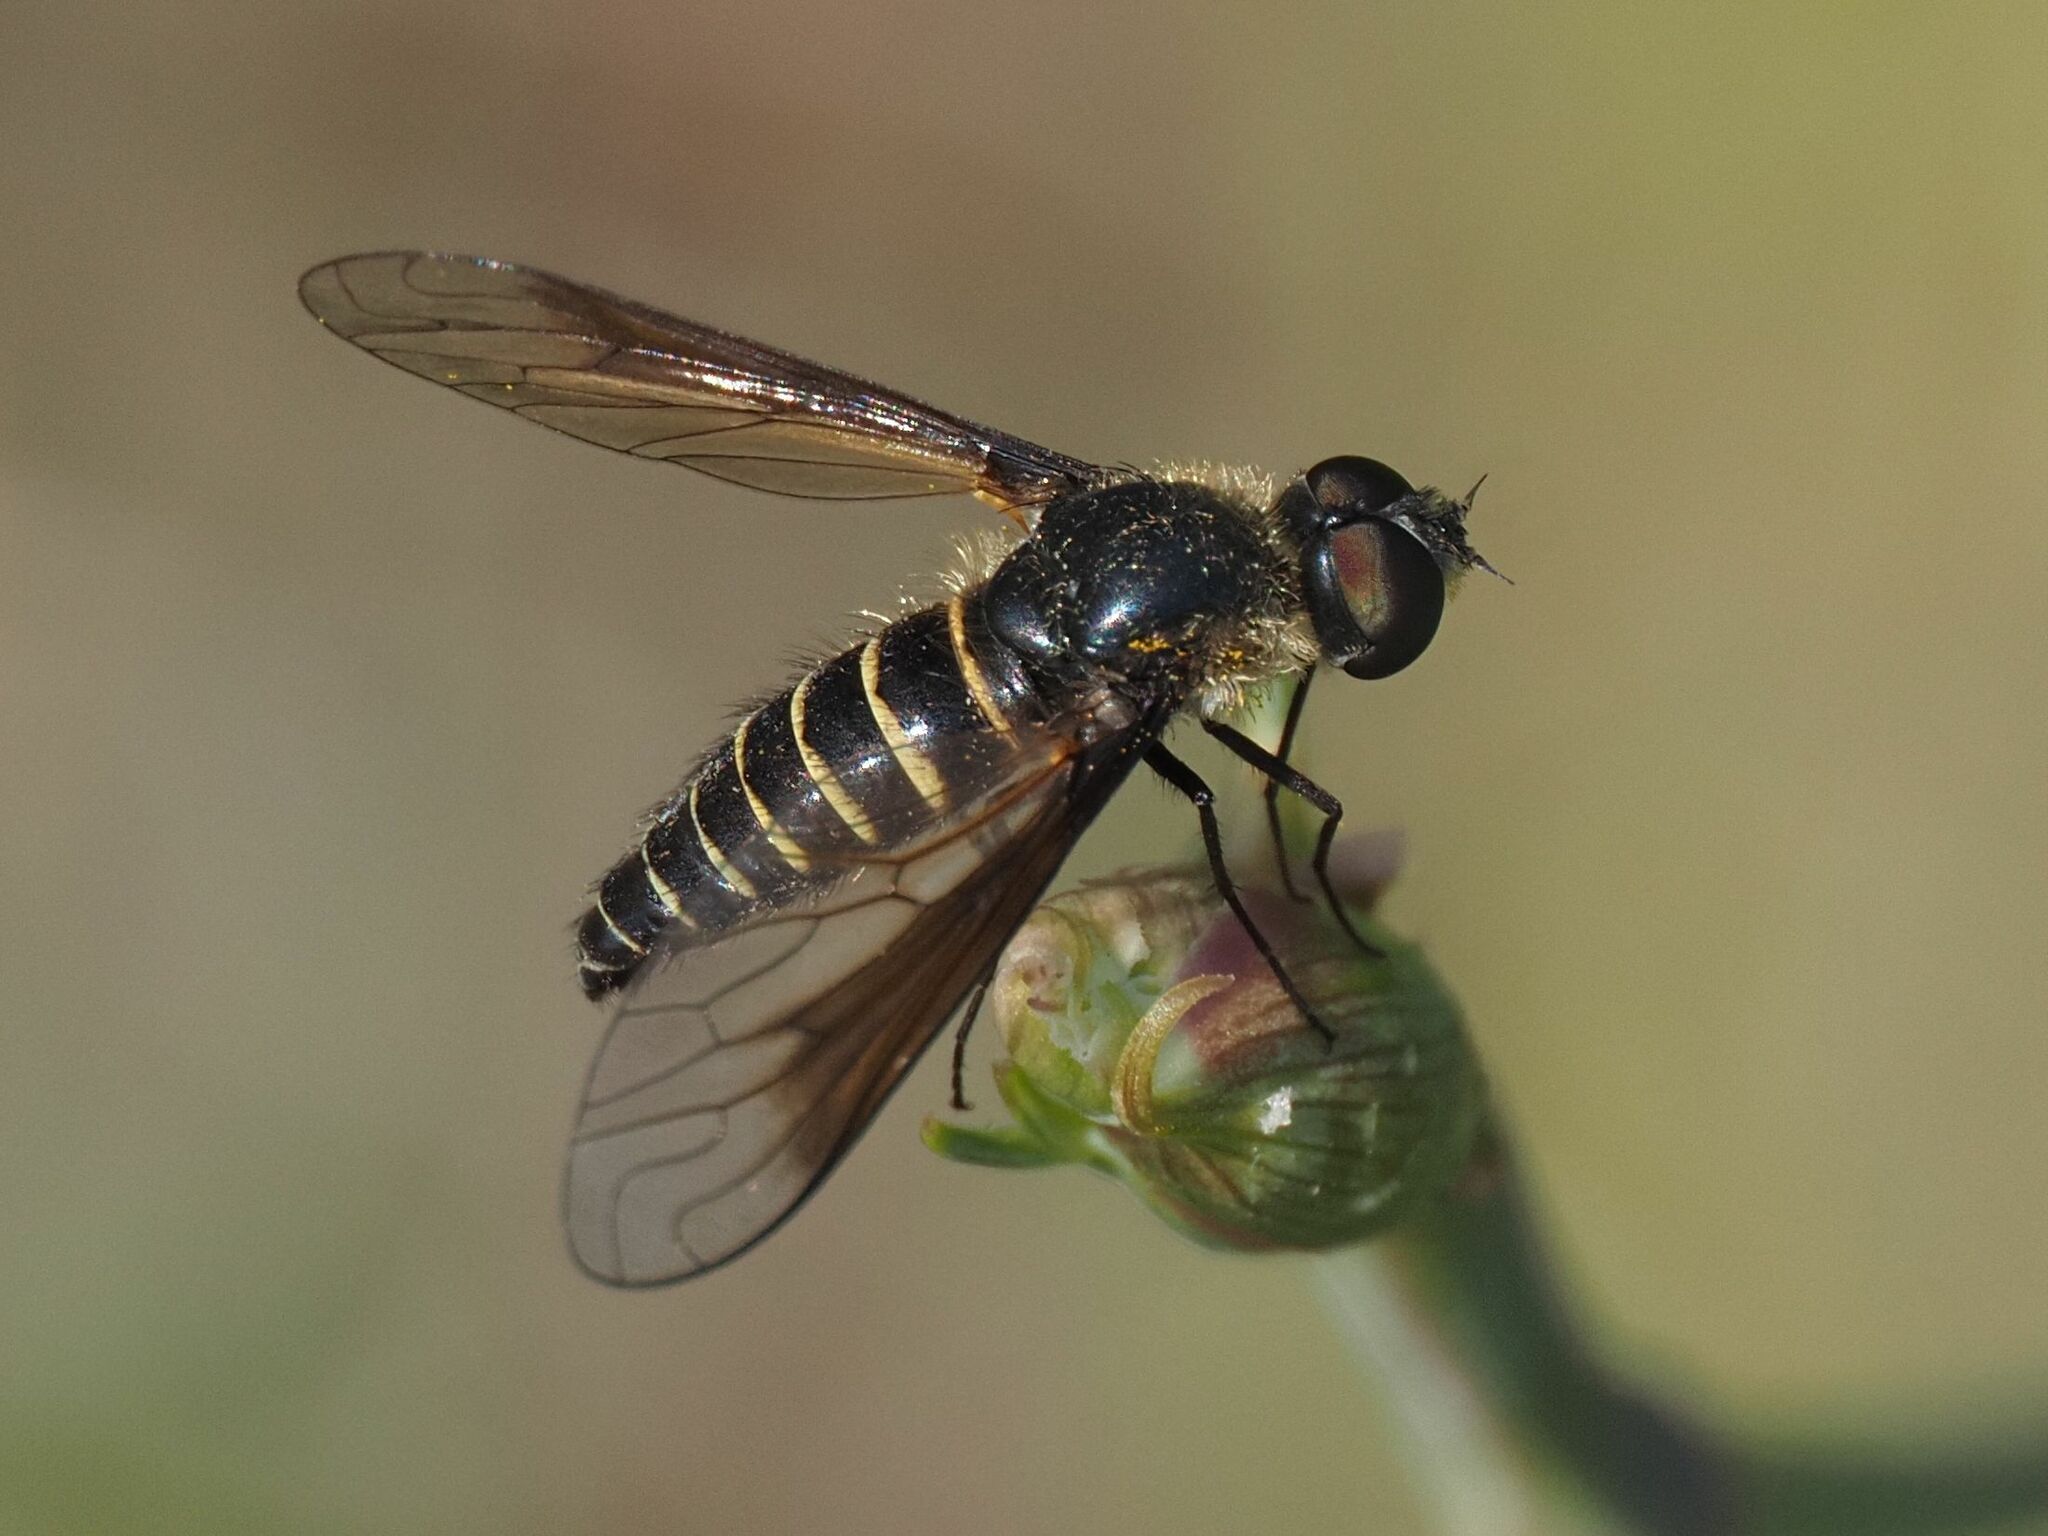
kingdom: Animalia
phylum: Arthropoda
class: Insecta
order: Diptera
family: Bombyliidae
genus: Lomatia
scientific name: Lomatia lateralis
